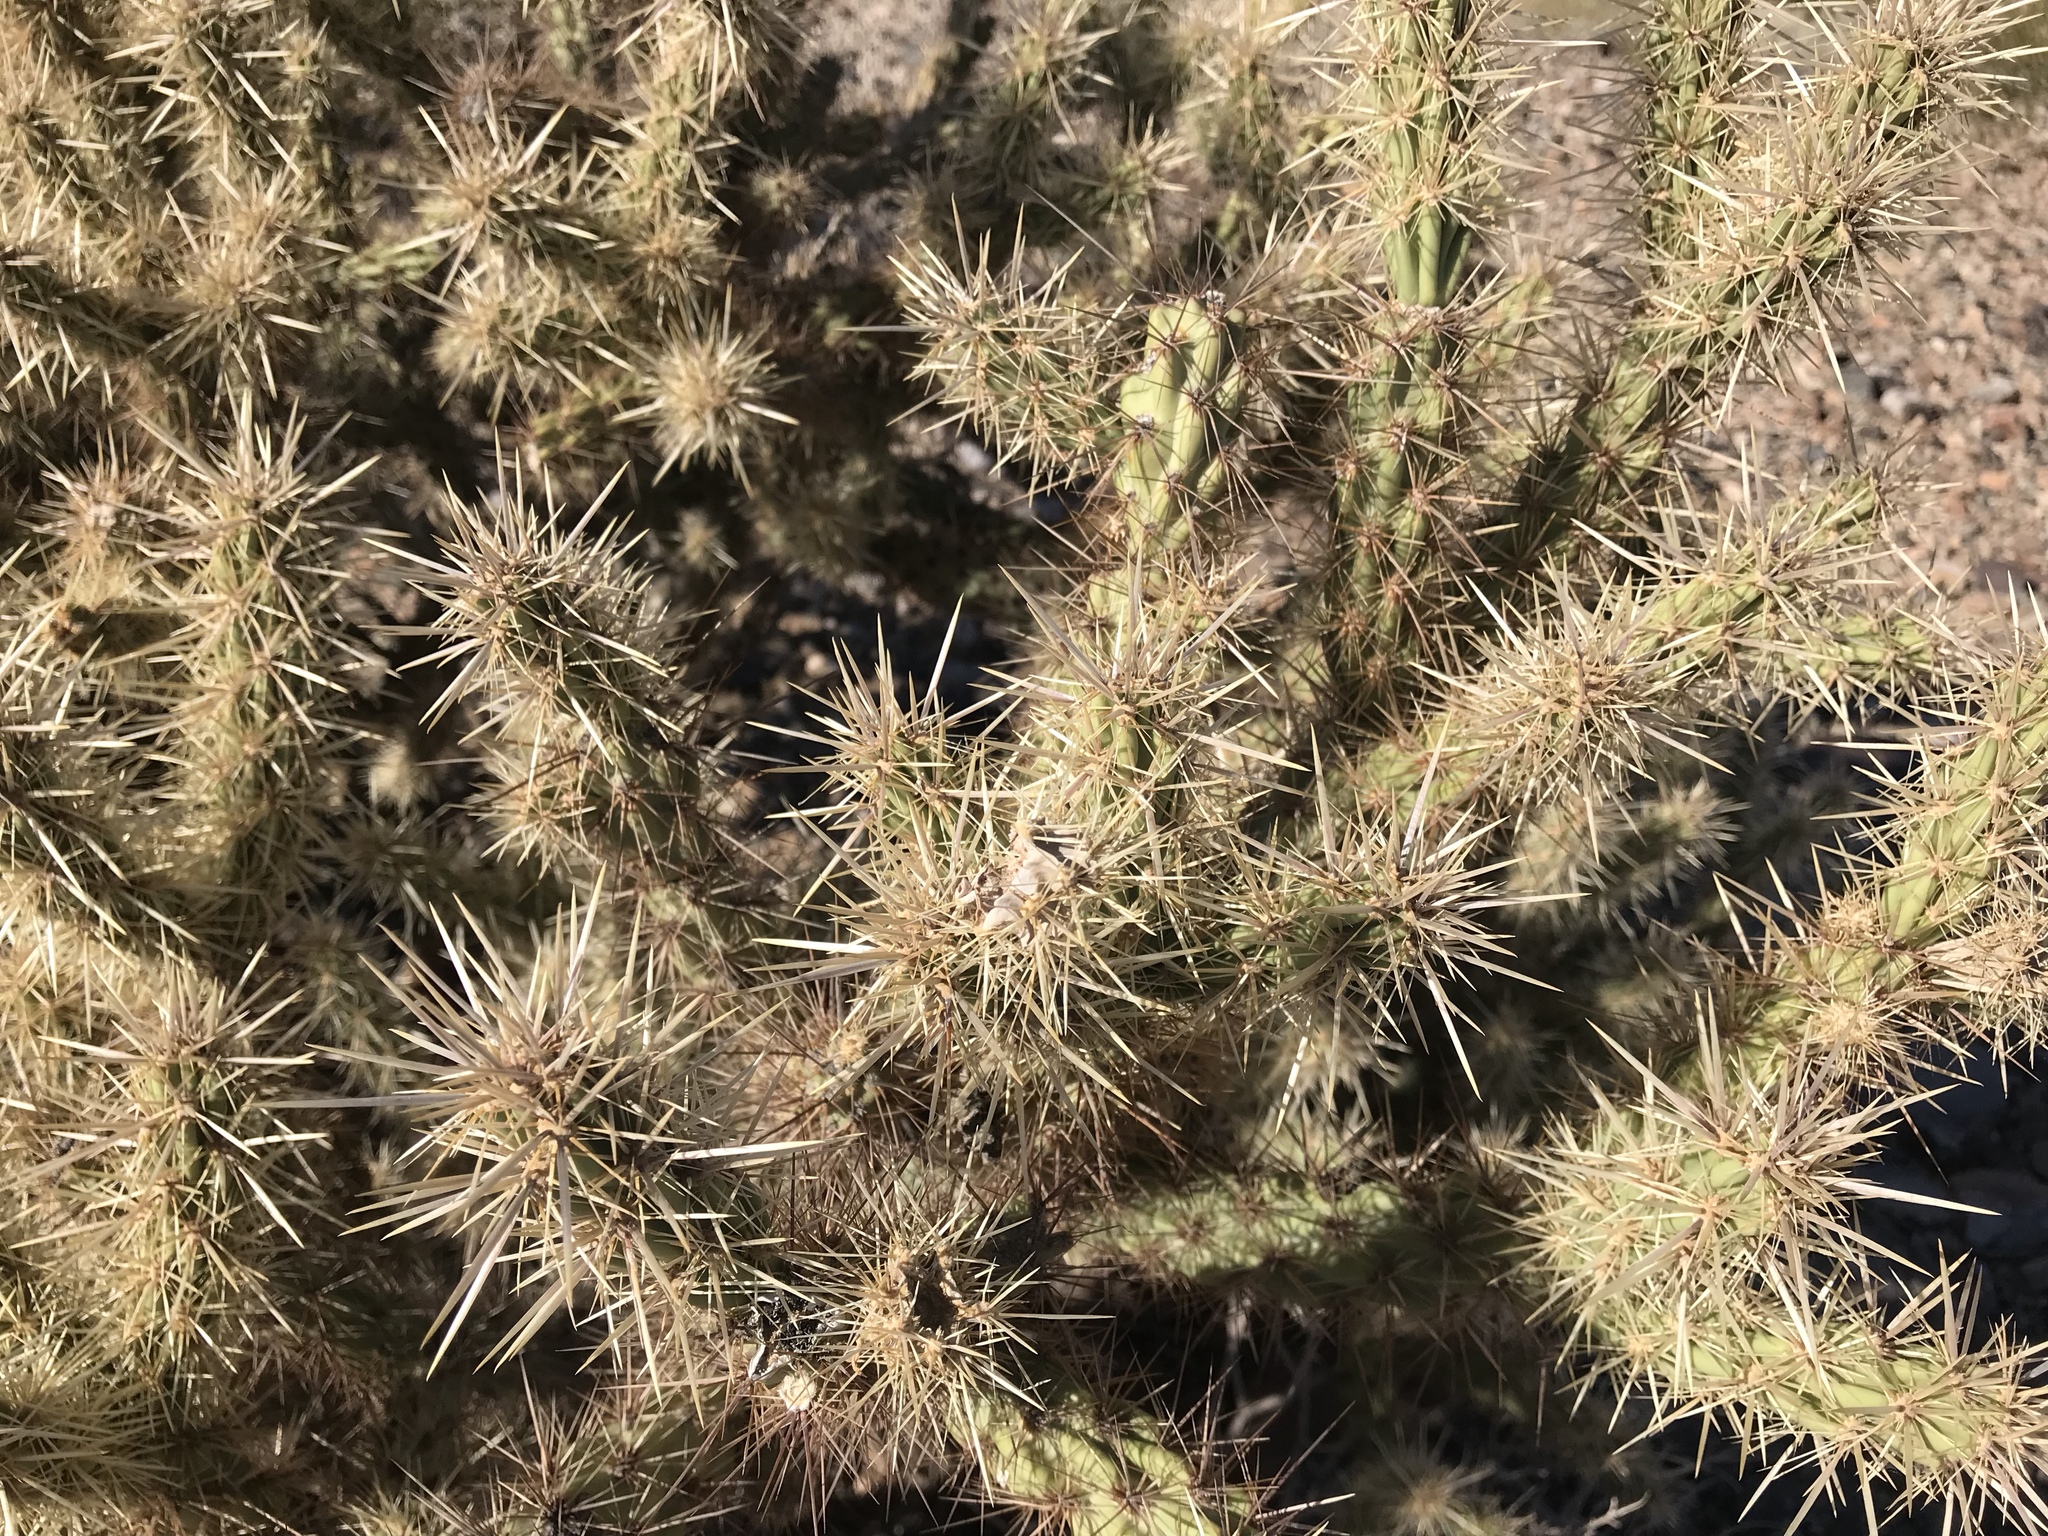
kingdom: Plantae
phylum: Tracheophyta
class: Magnoliopsida
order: Caryophyllales
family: Cactaceae
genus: Cylindropuntia
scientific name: Cylindropuntia acanthocarpa
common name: Buckhorn cholla
